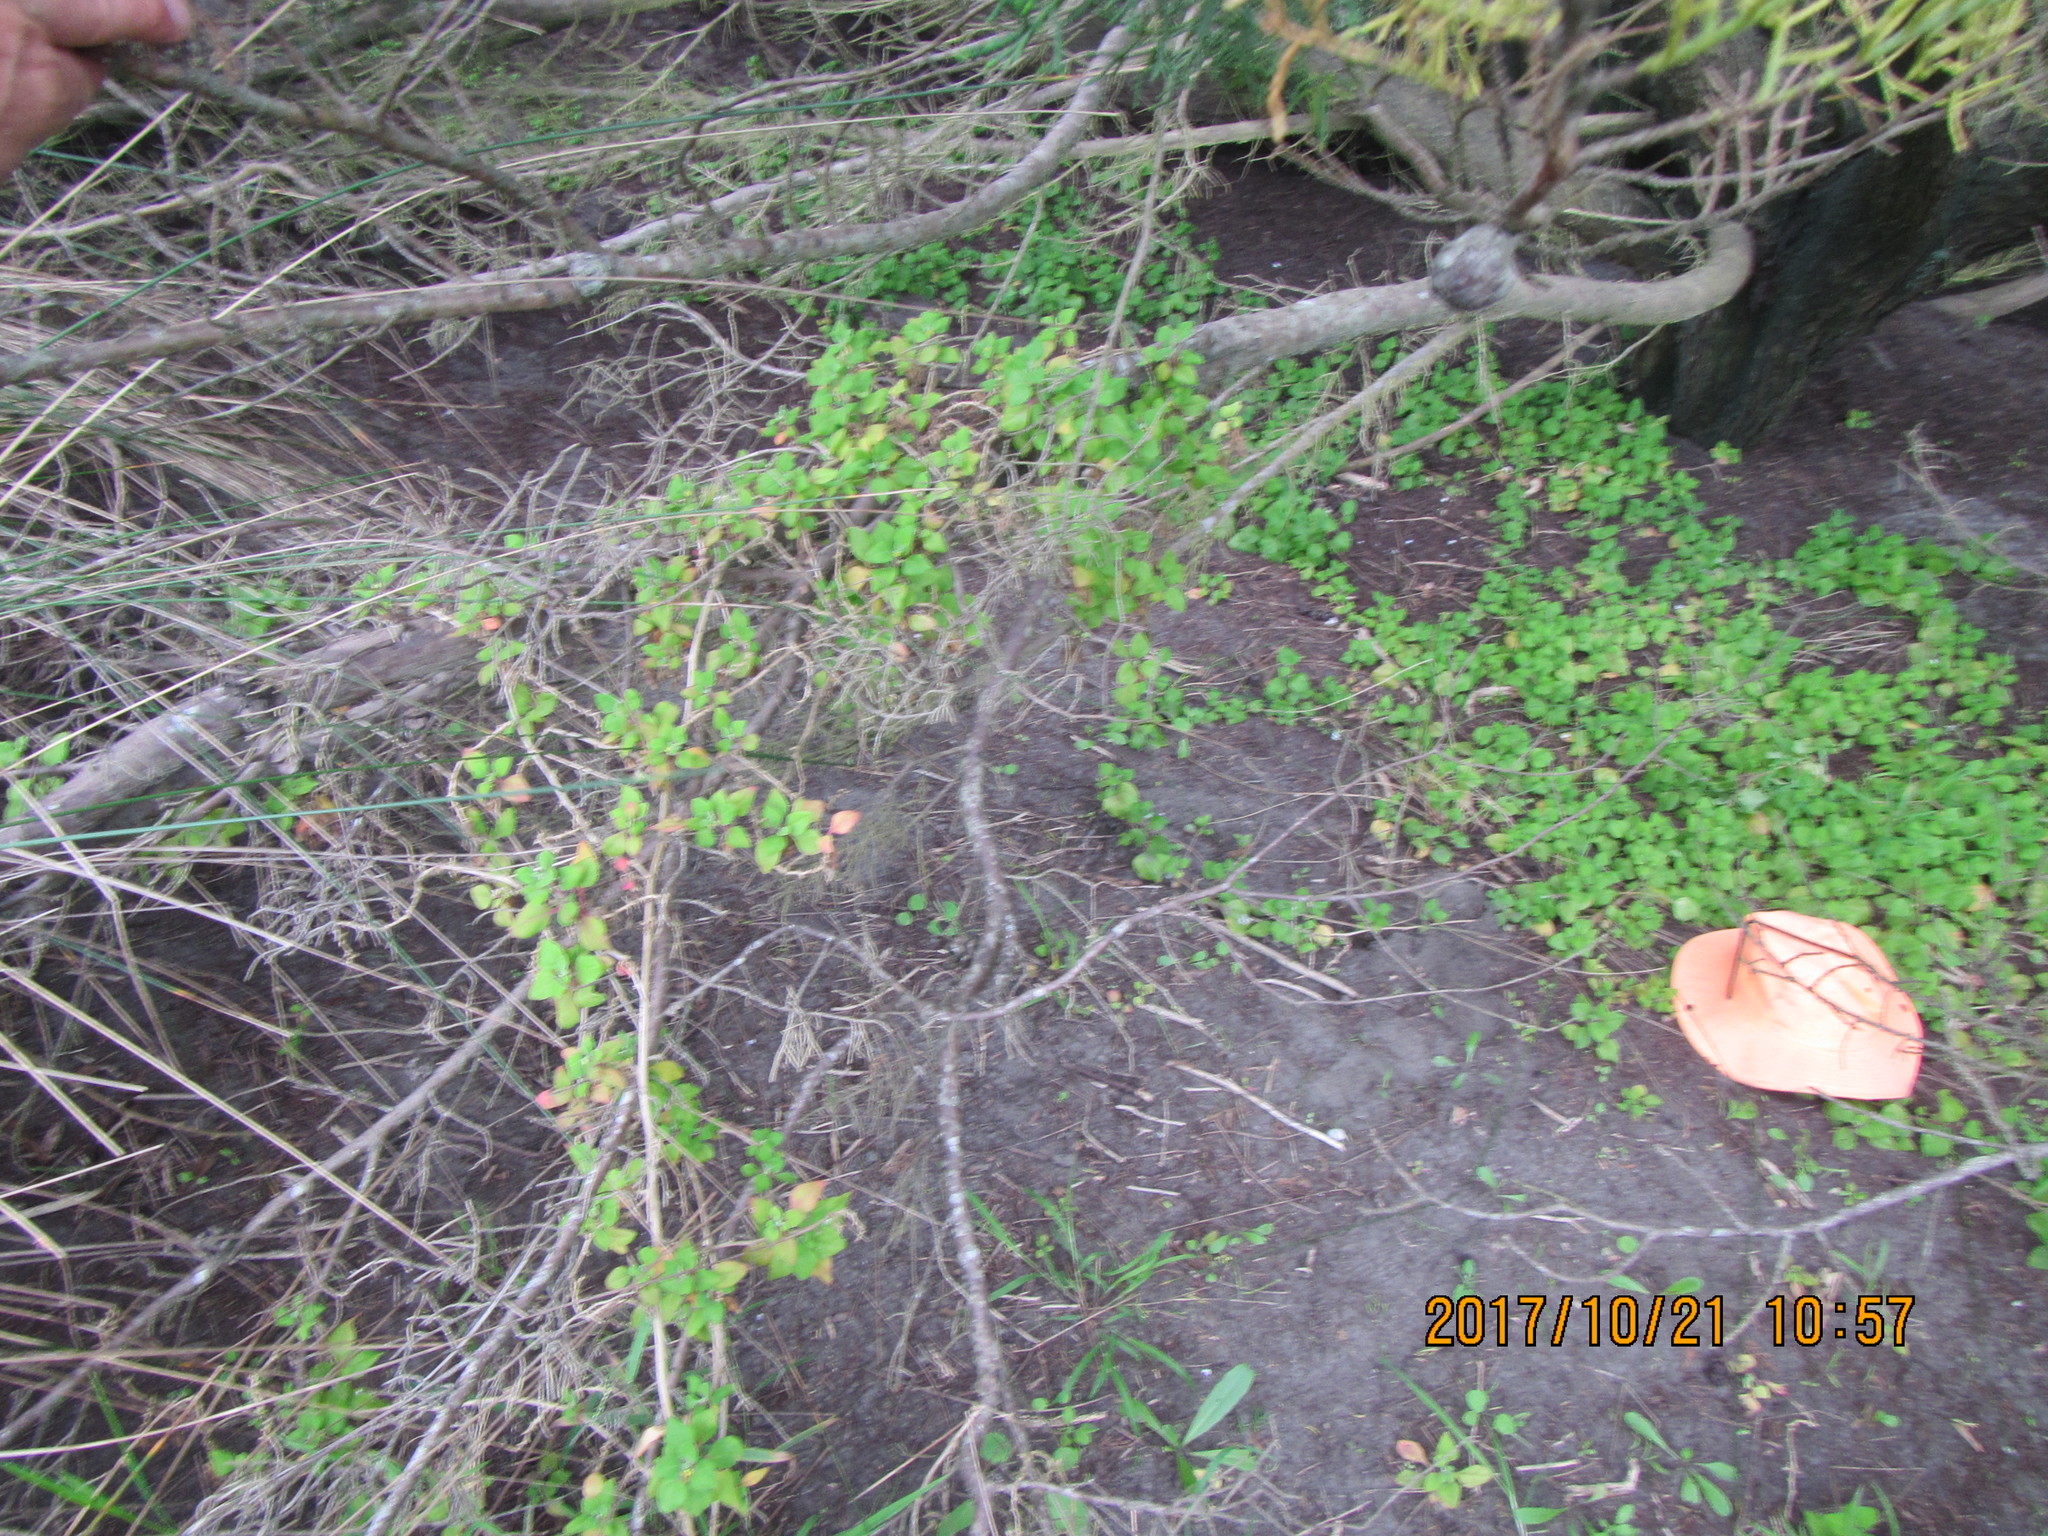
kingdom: Plantae
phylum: Tracheophyta
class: Magnoliopsida
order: Caryophyllales
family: Aizoaceae
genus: Tetragonia
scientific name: Tetragonia implexicoma
